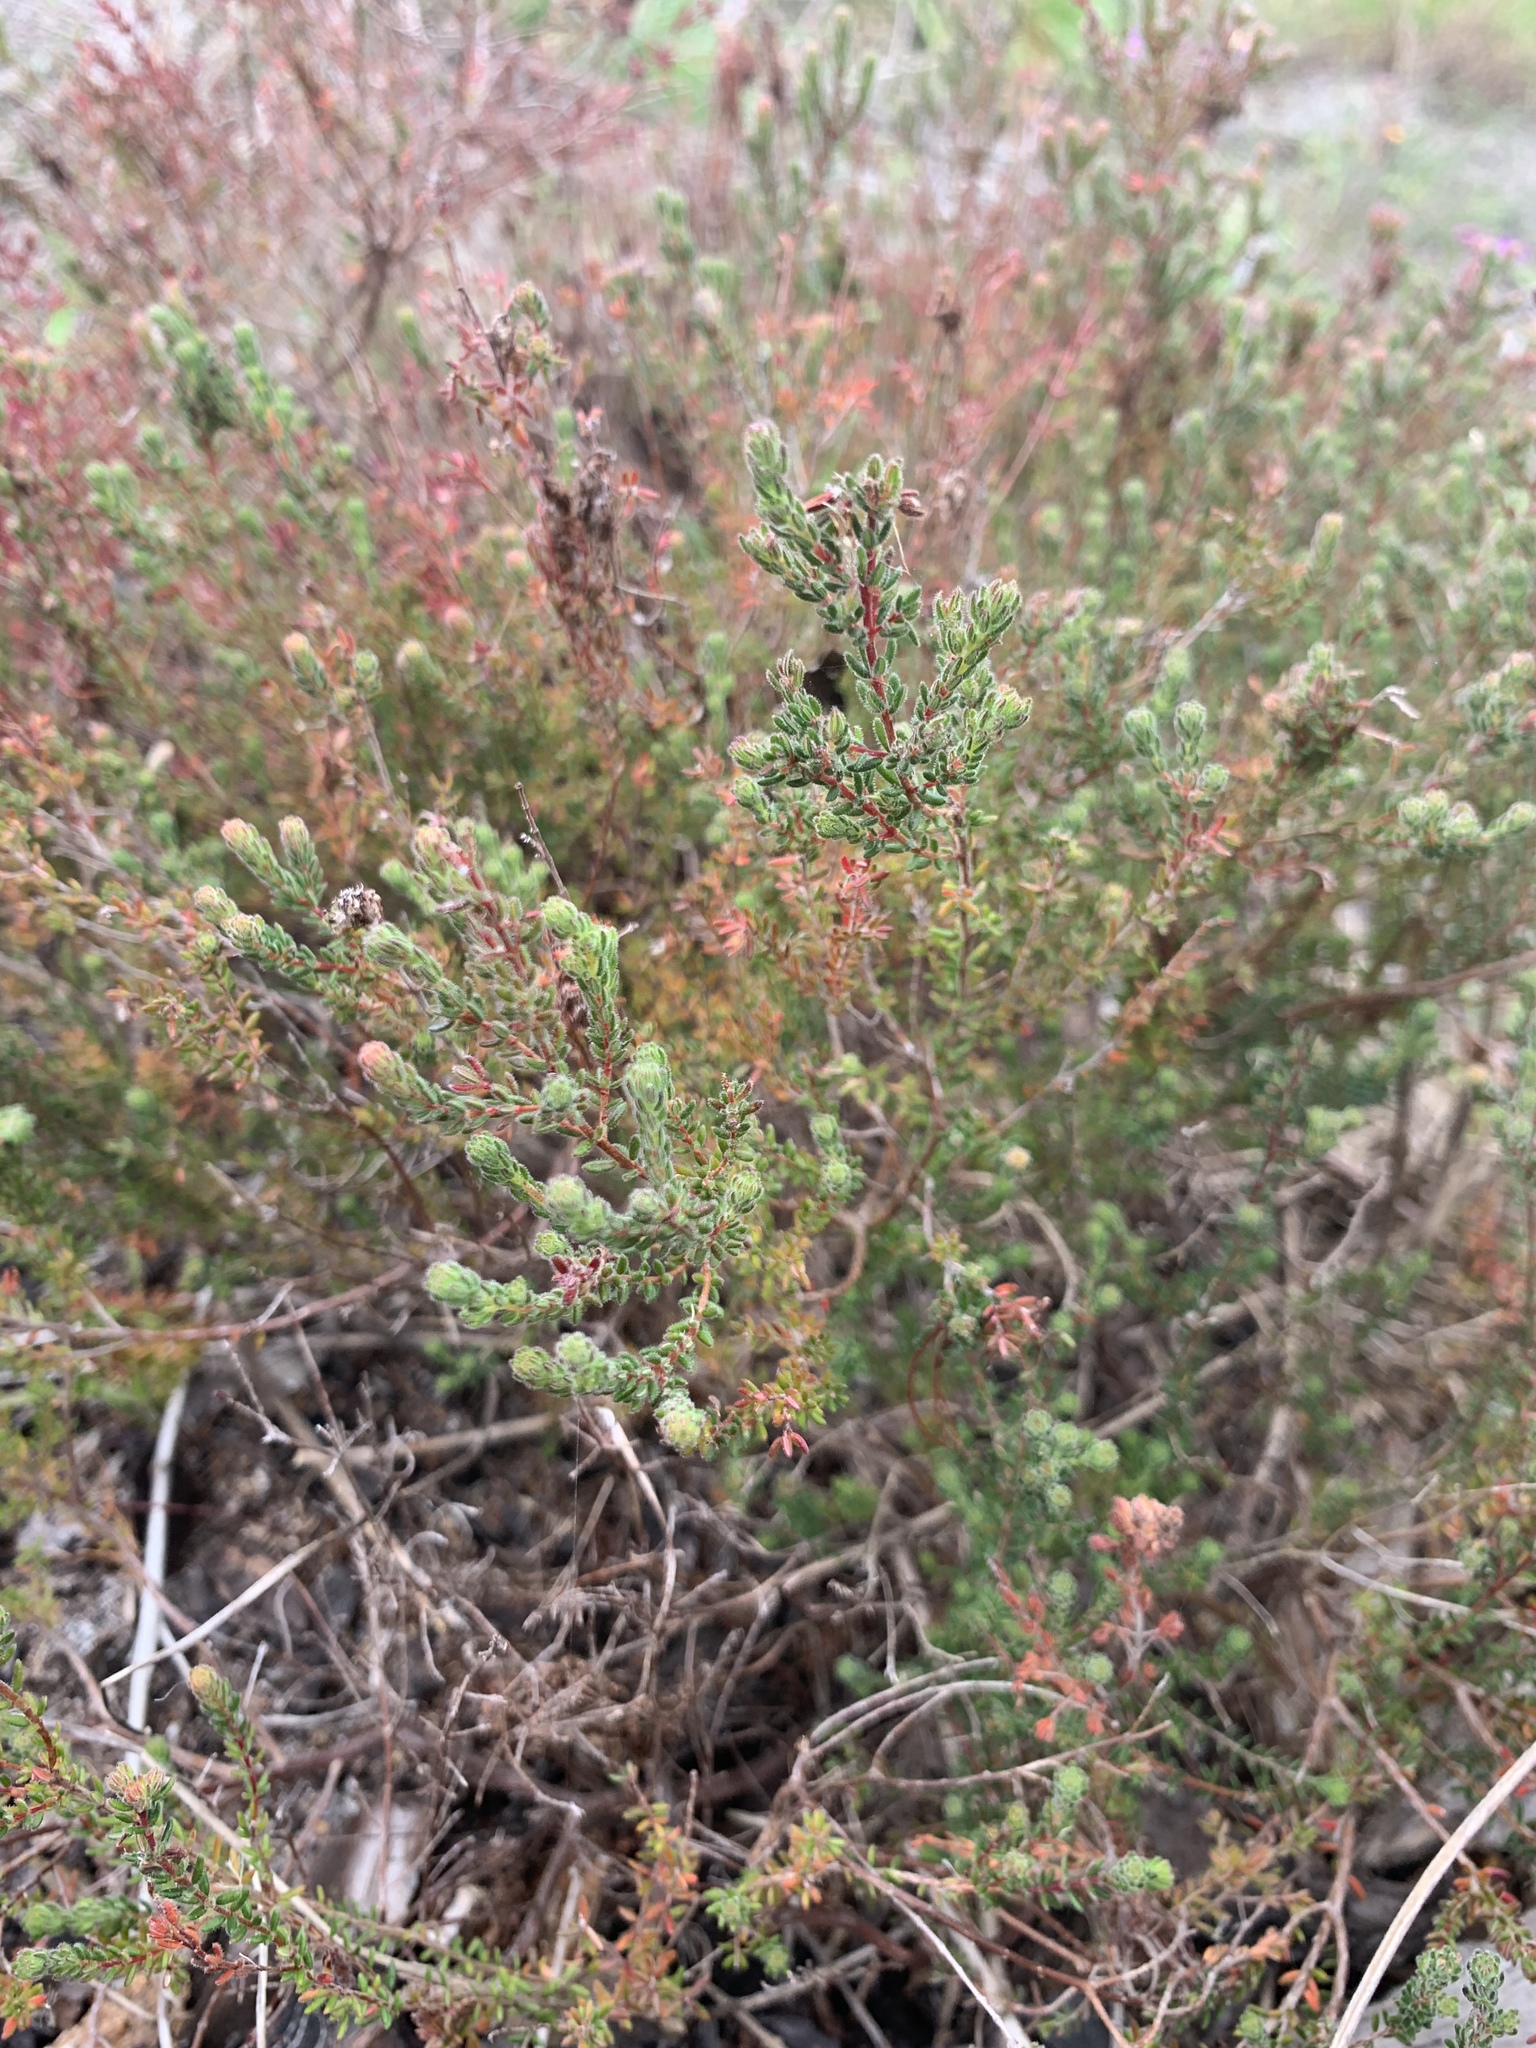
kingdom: Plantae
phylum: Tracheophyta
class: Magnoliopsida
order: Ericales
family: Ericaceae
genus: Erica
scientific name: Erica turgida
